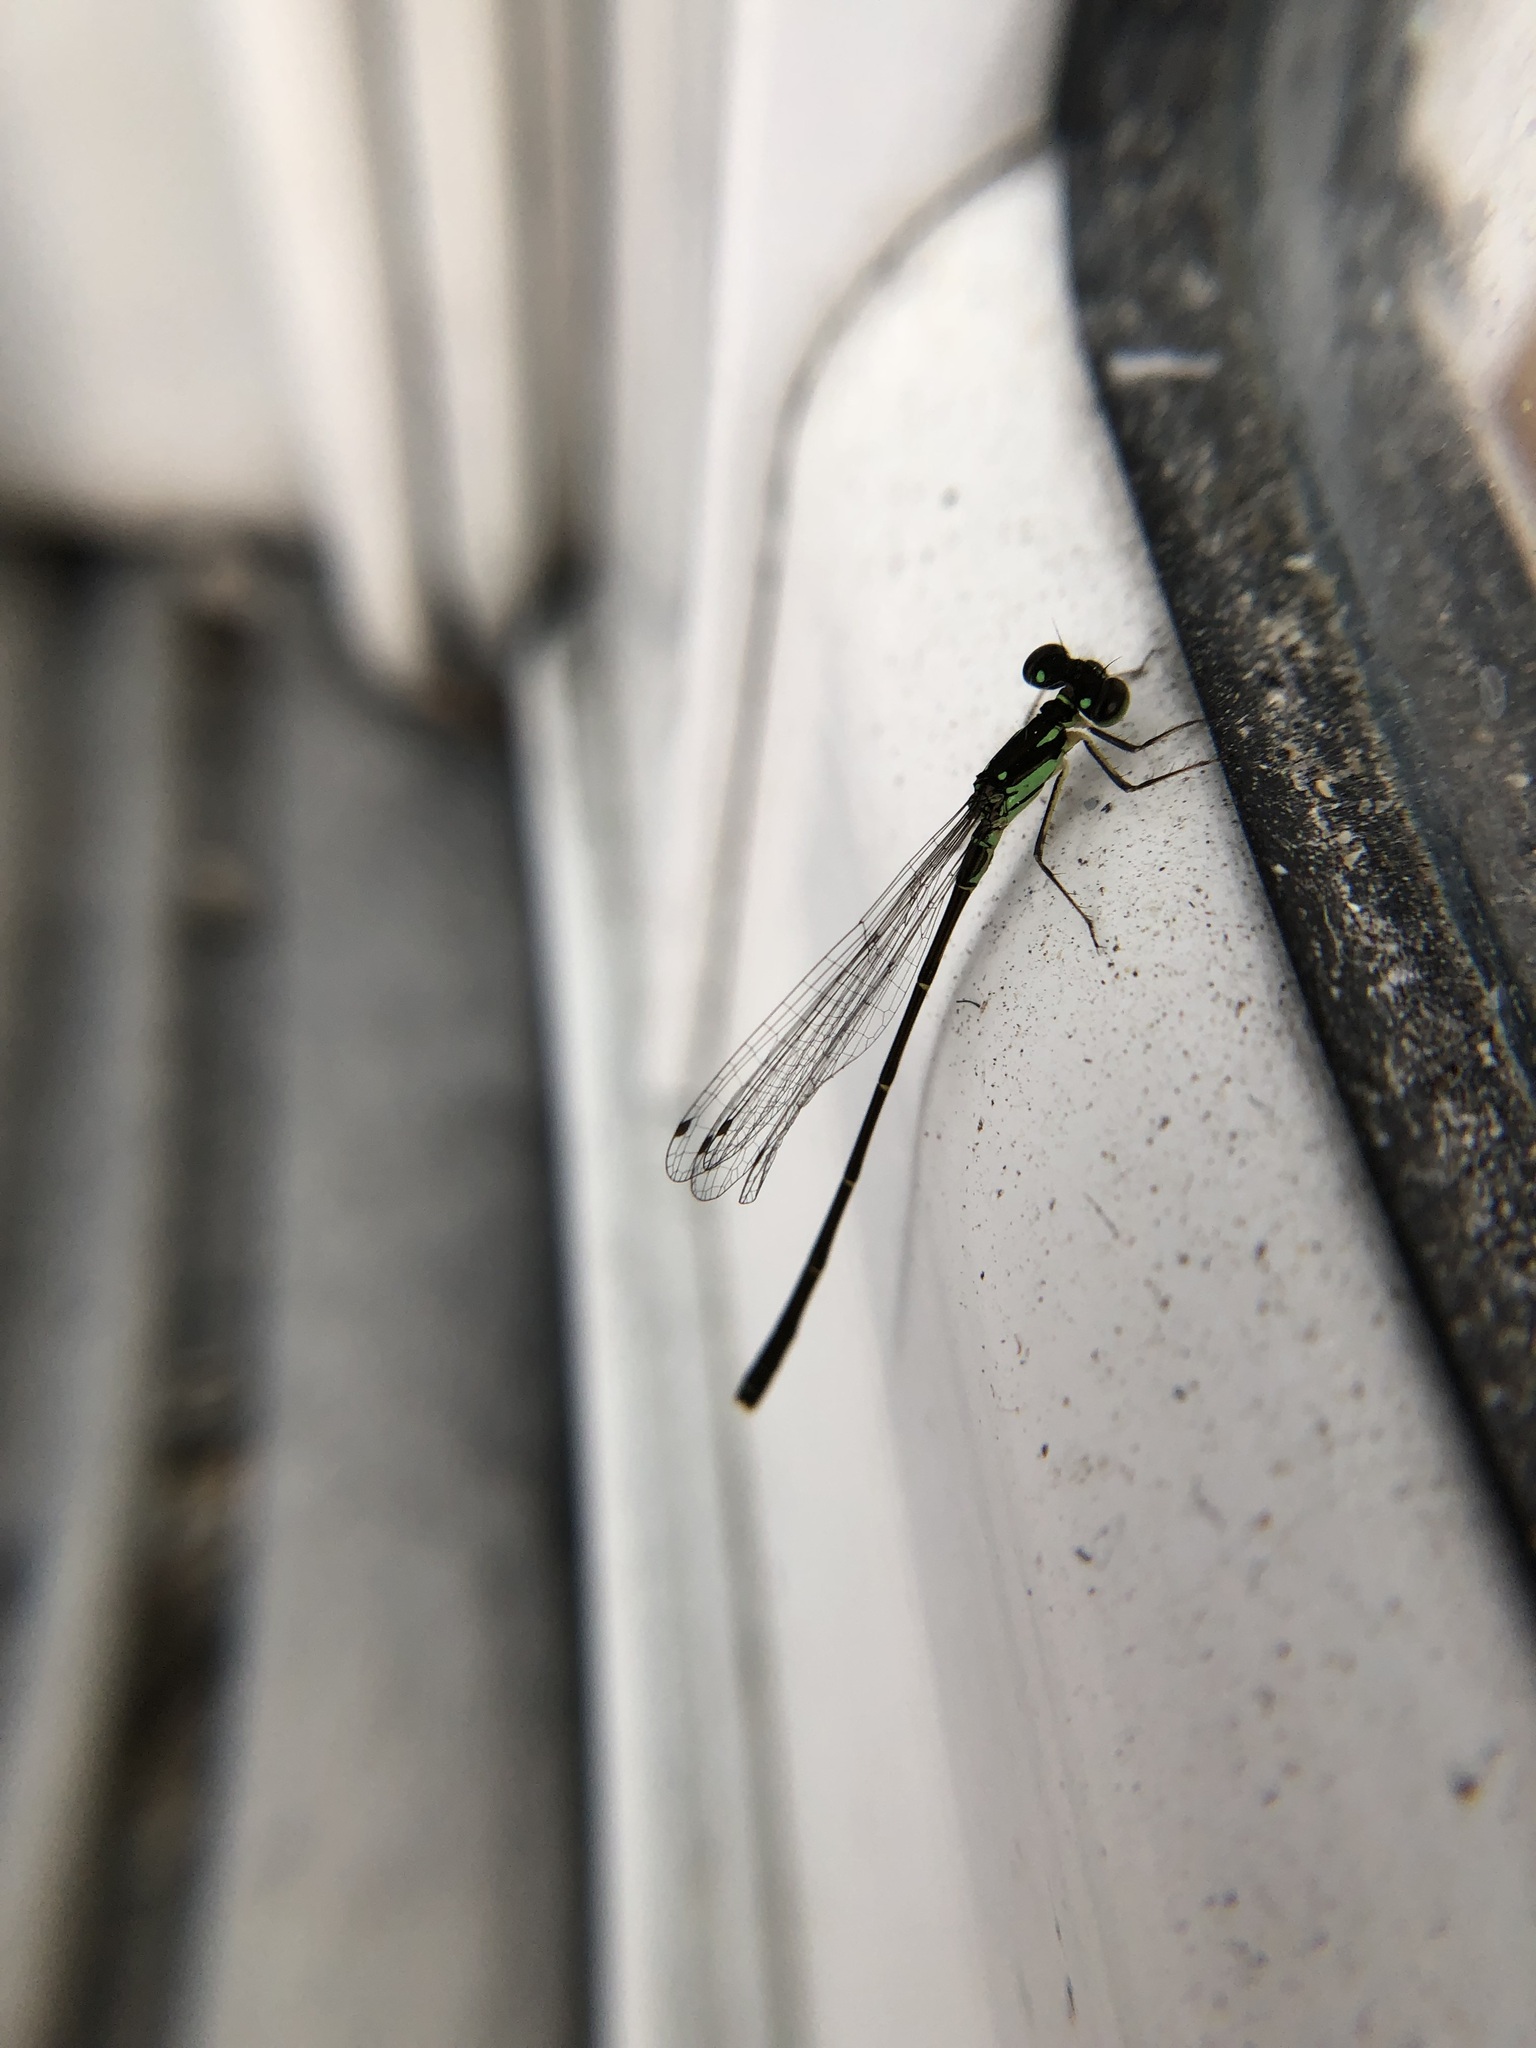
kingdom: Animalia
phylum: Arthropoda
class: Insecta
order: Odonata
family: Coenagrionidae
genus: Ischnura
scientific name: Ischnura posita
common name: Fragile forktail
